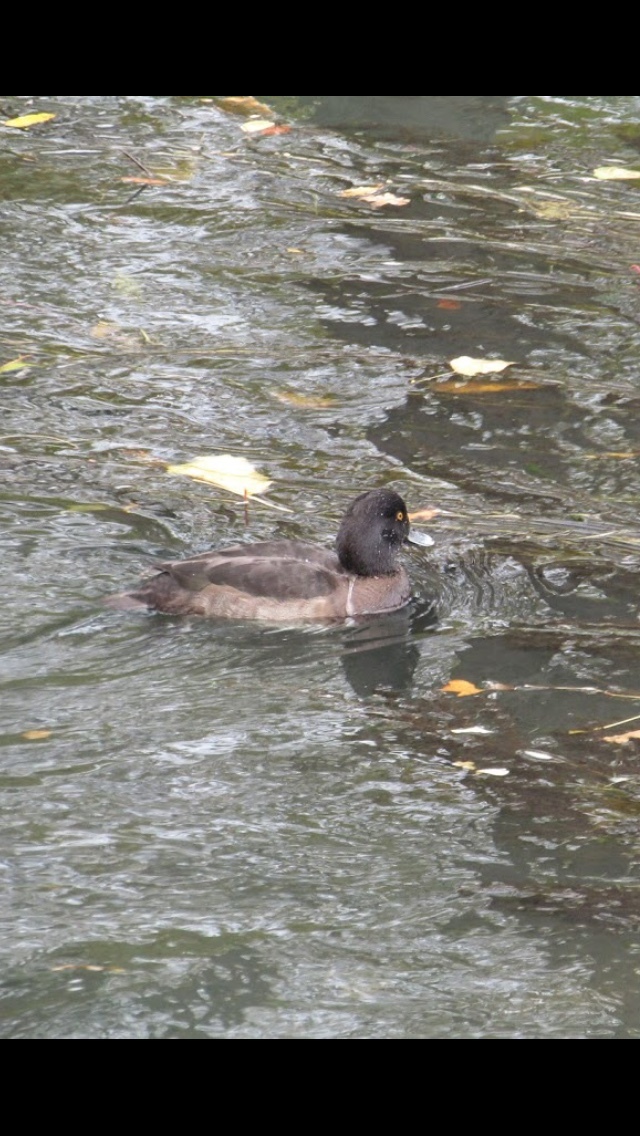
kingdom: Animalia
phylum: Chordata
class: Aves
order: Anseriformes
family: Anatidae
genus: Aythya
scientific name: Aythya fuligula
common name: Tufted duck
